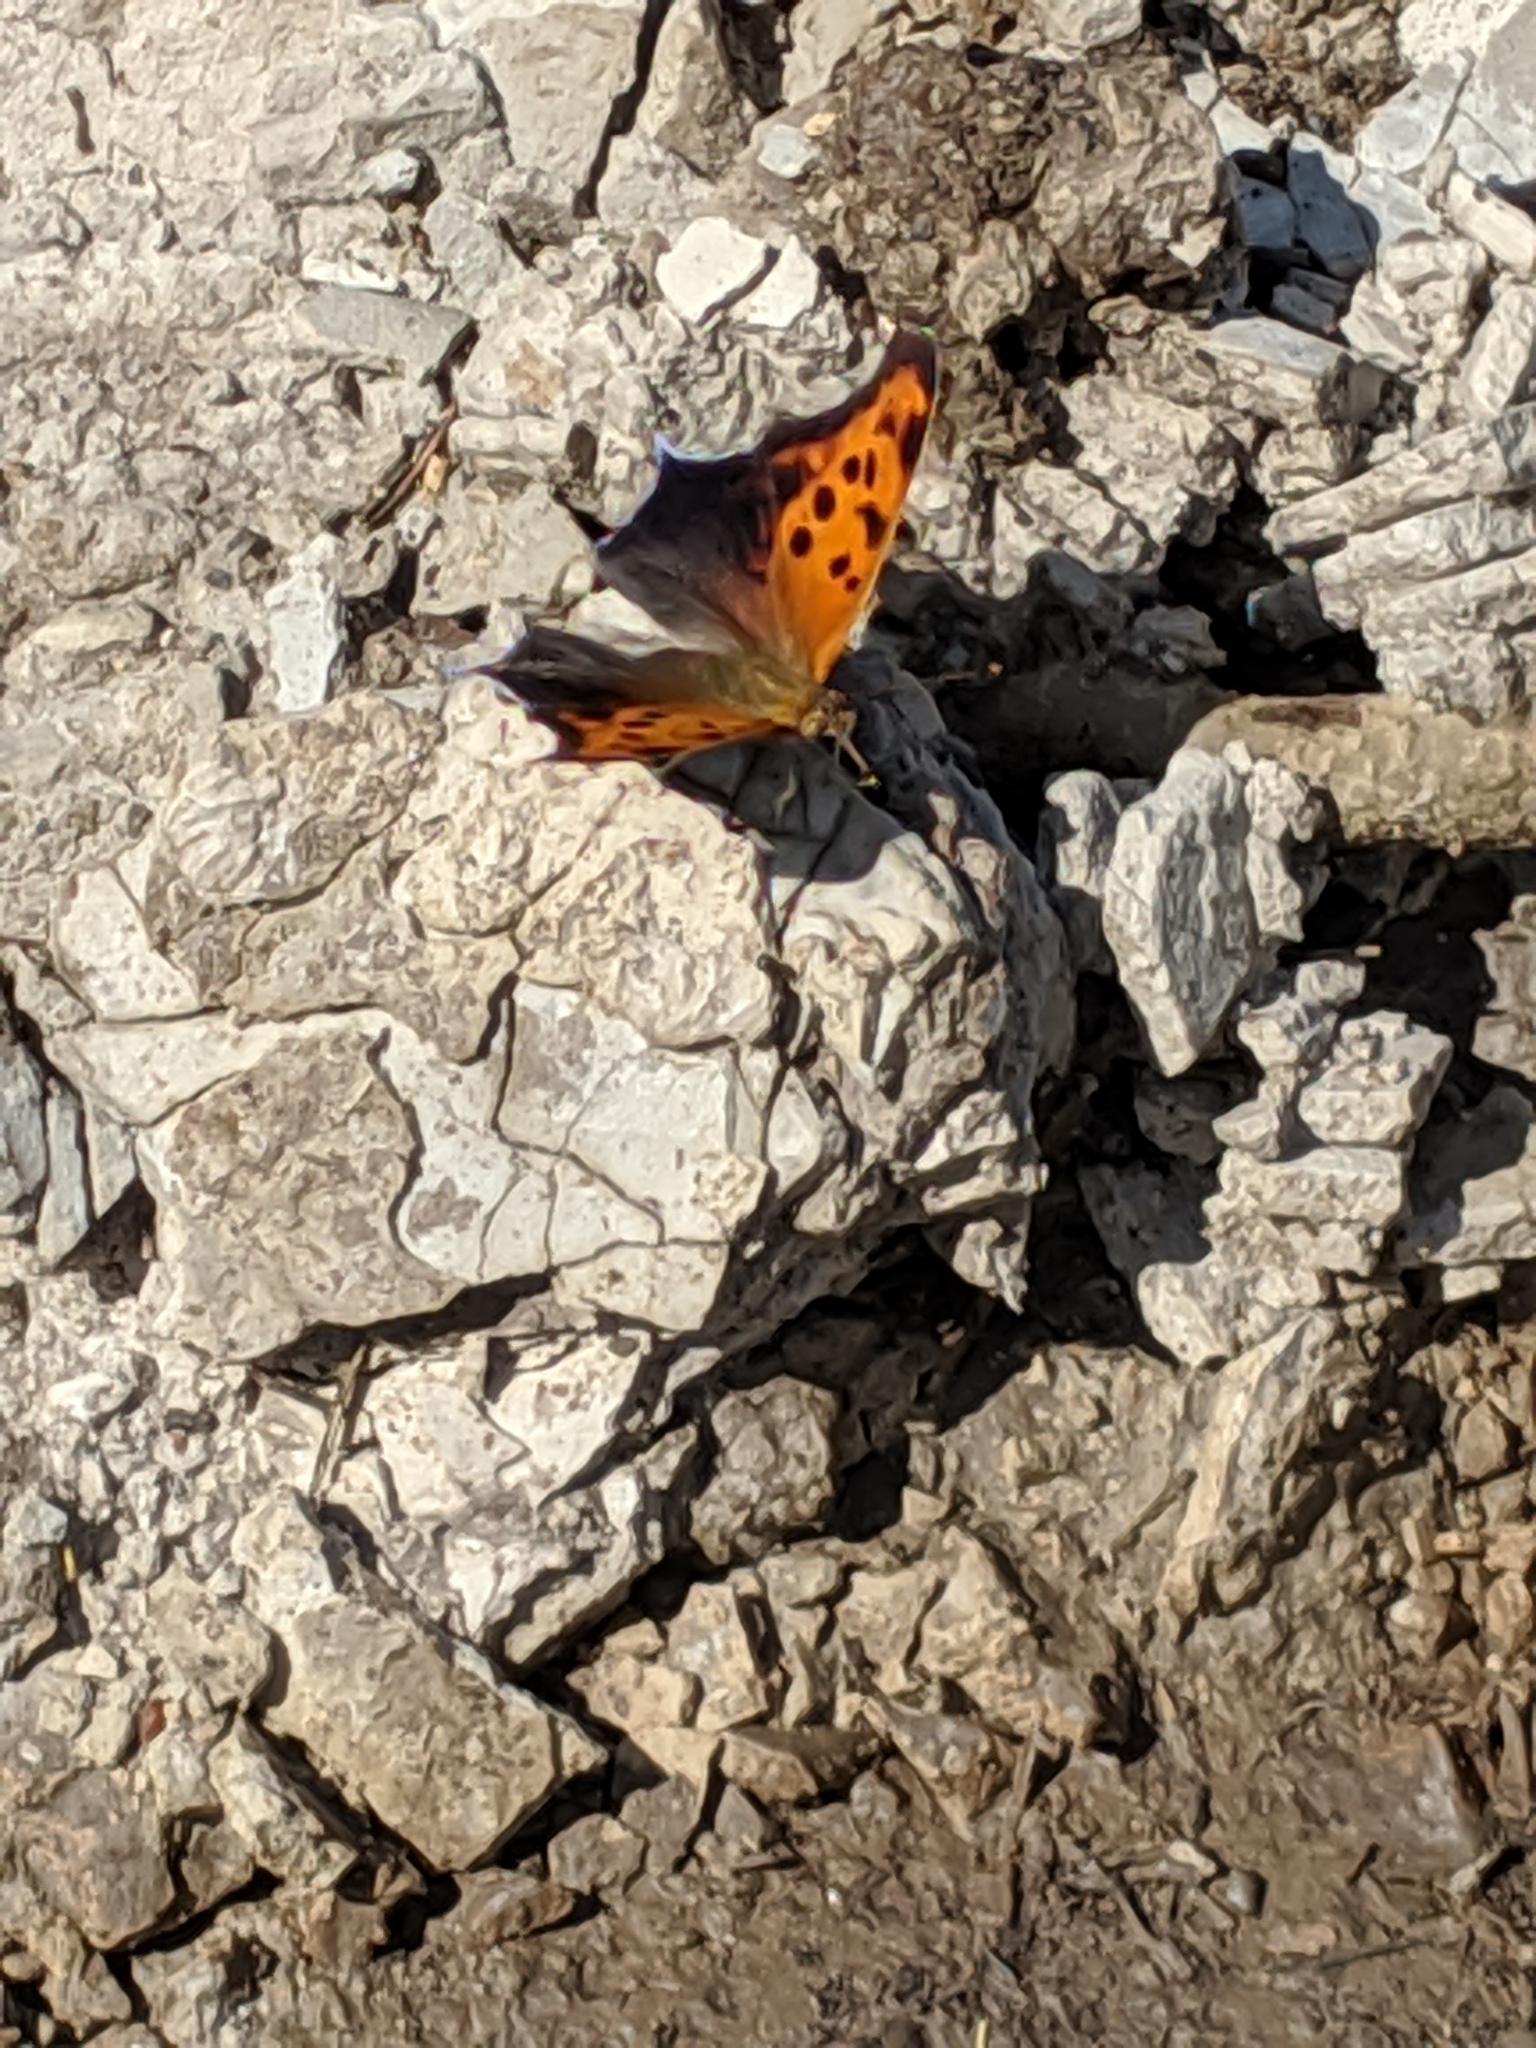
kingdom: Animalia
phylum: Arthropoda
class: Insecta
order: Lepidoptera
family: Nymphalidae
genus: Polygonia
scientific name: Polygonia interrogationis
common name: Question mark
